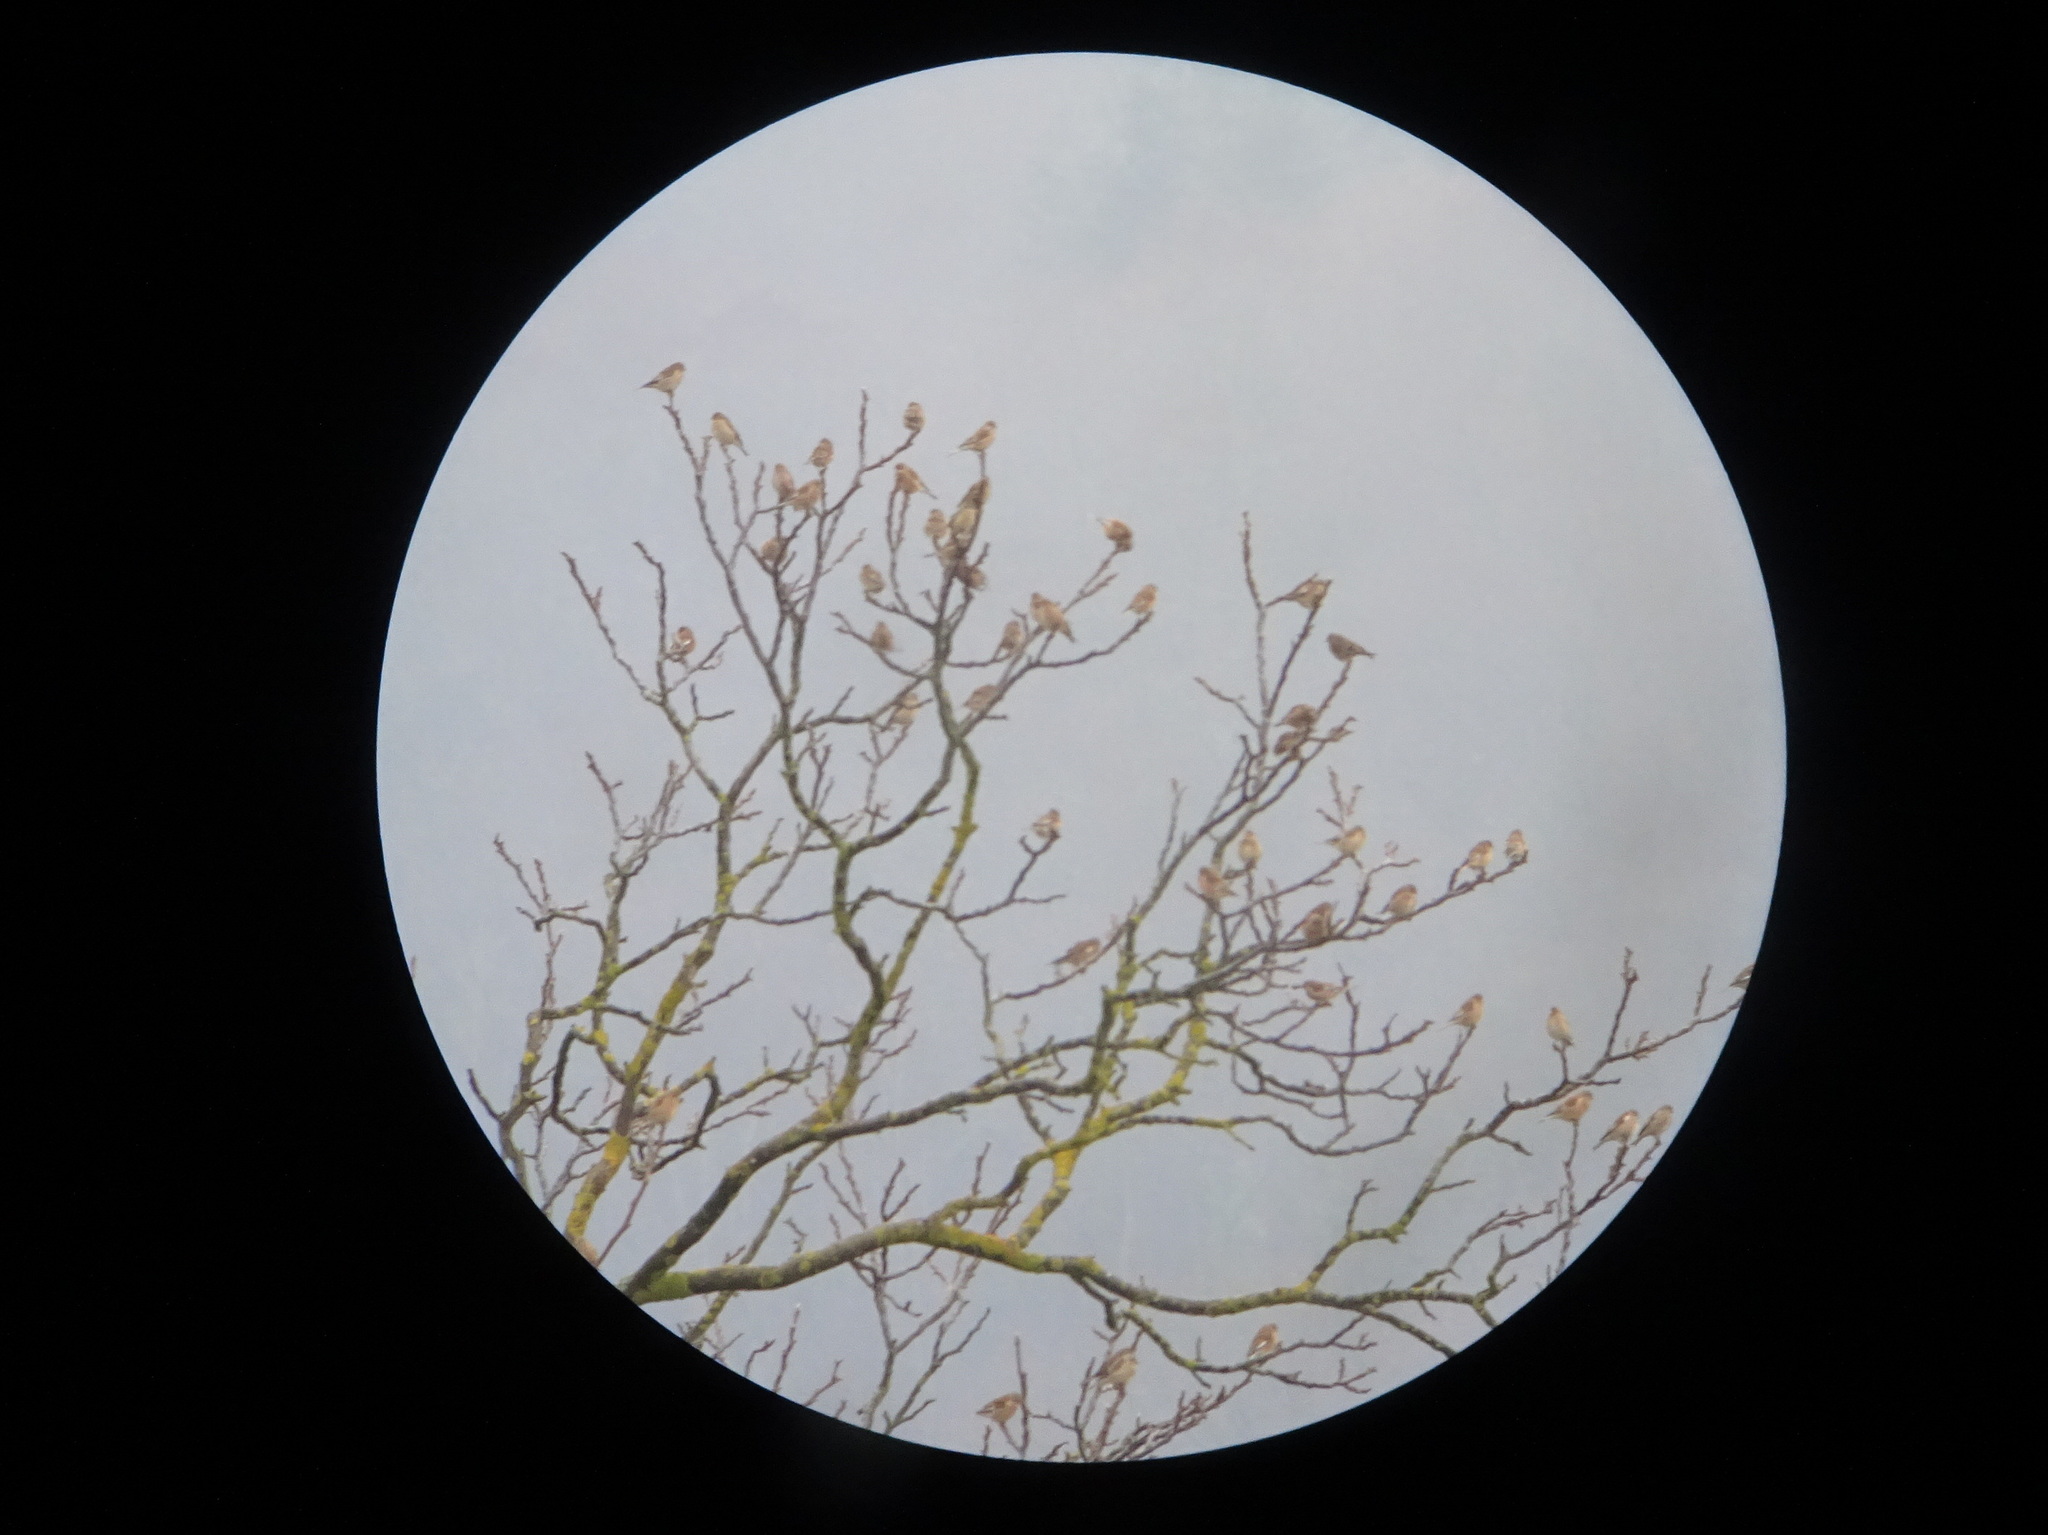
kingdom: Animalia
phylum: Chordata
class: Aves
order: Passeriformes
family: Fringillidae
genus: Linaria
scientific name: Linaria cannabina
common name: Common linnet
